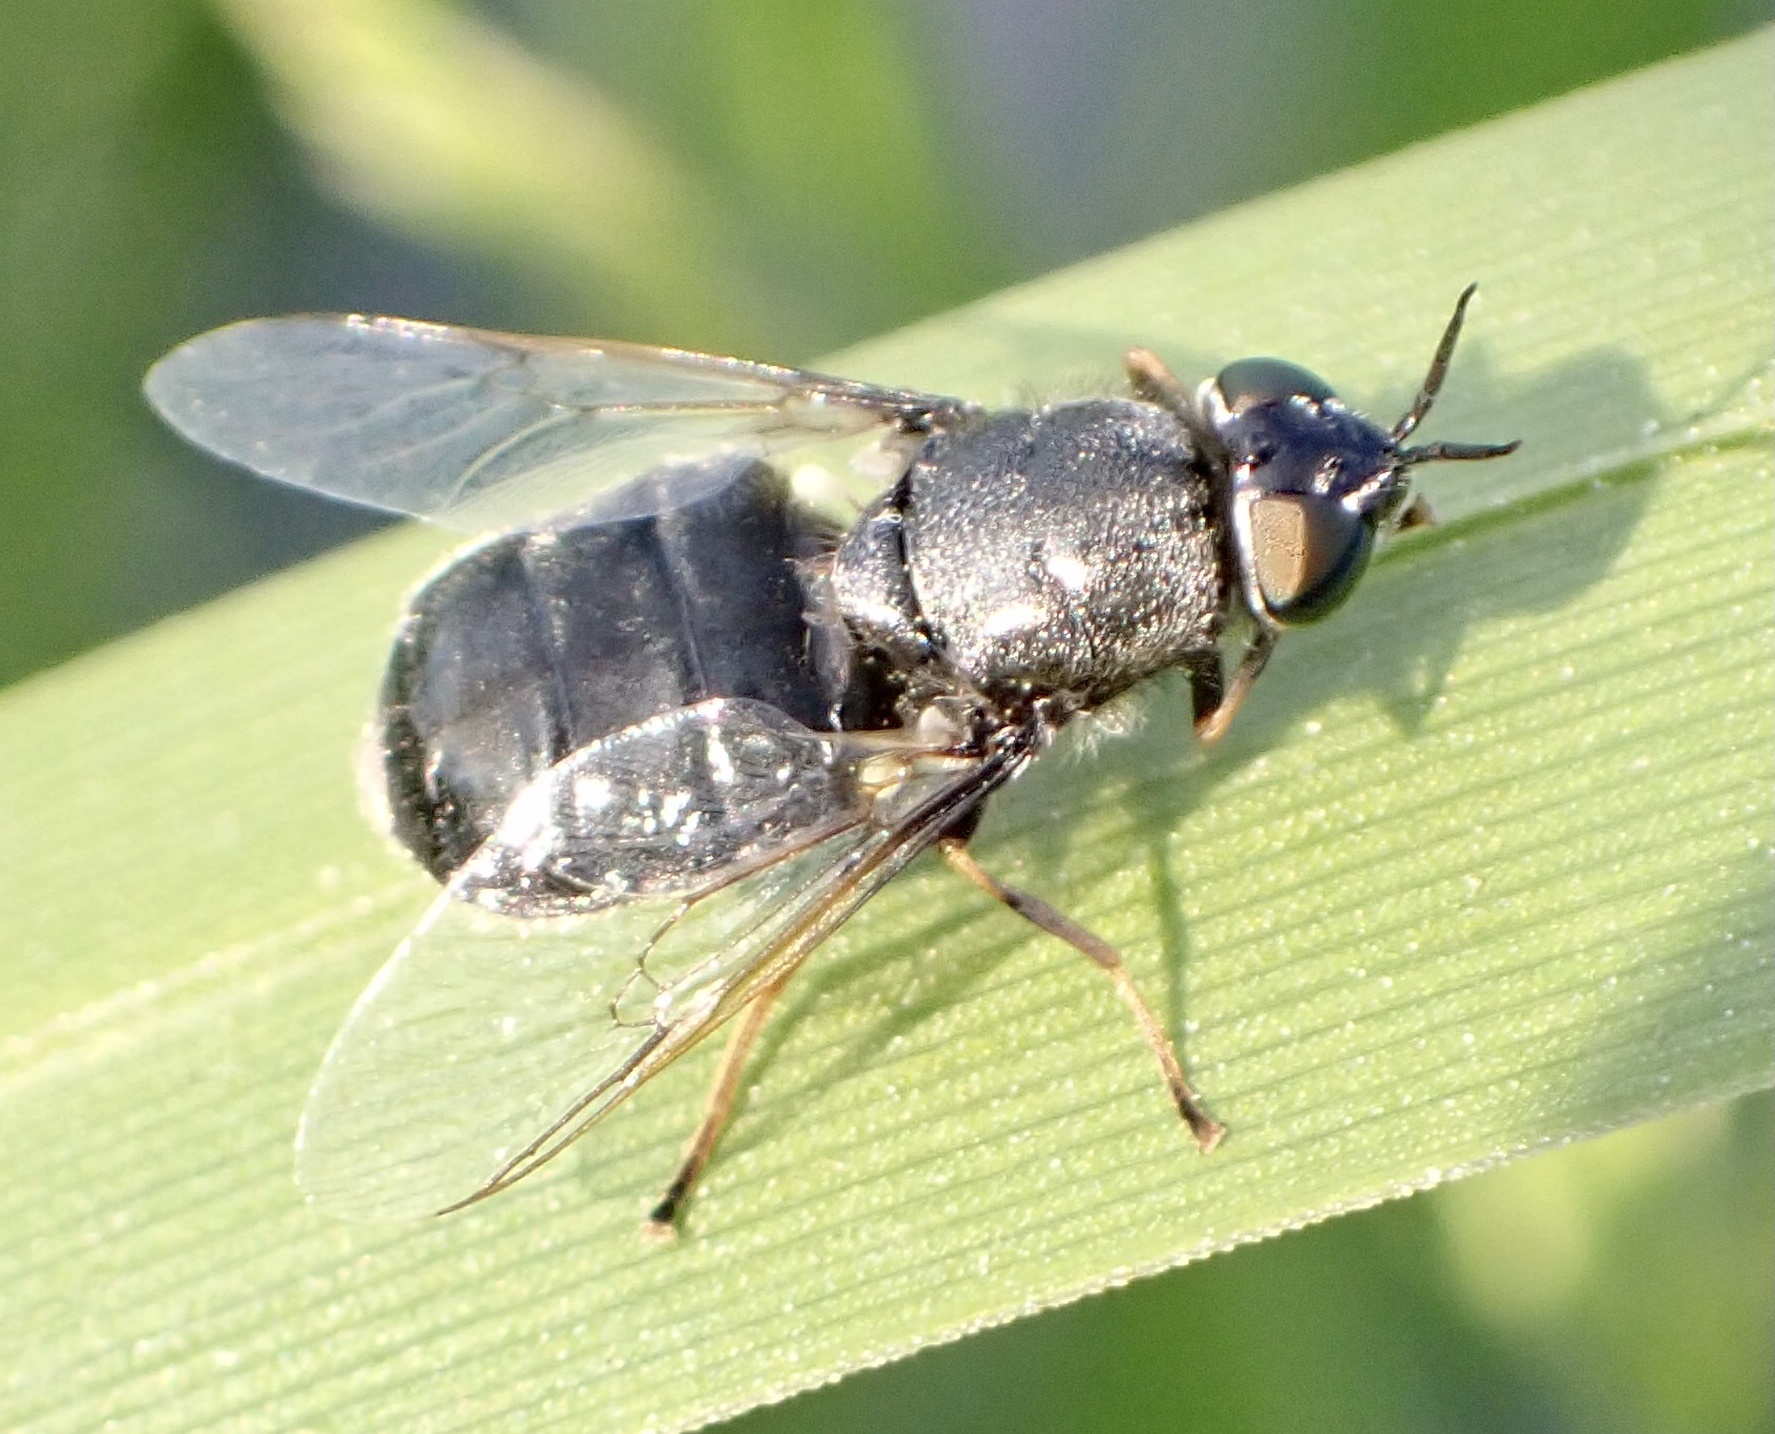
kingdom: Animalia
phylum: Arthropoda
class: Insecta
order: Diptera
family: Stratiomyidae
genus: Odontomyia
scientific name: Odontomyia tigrina
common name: Black colonel
